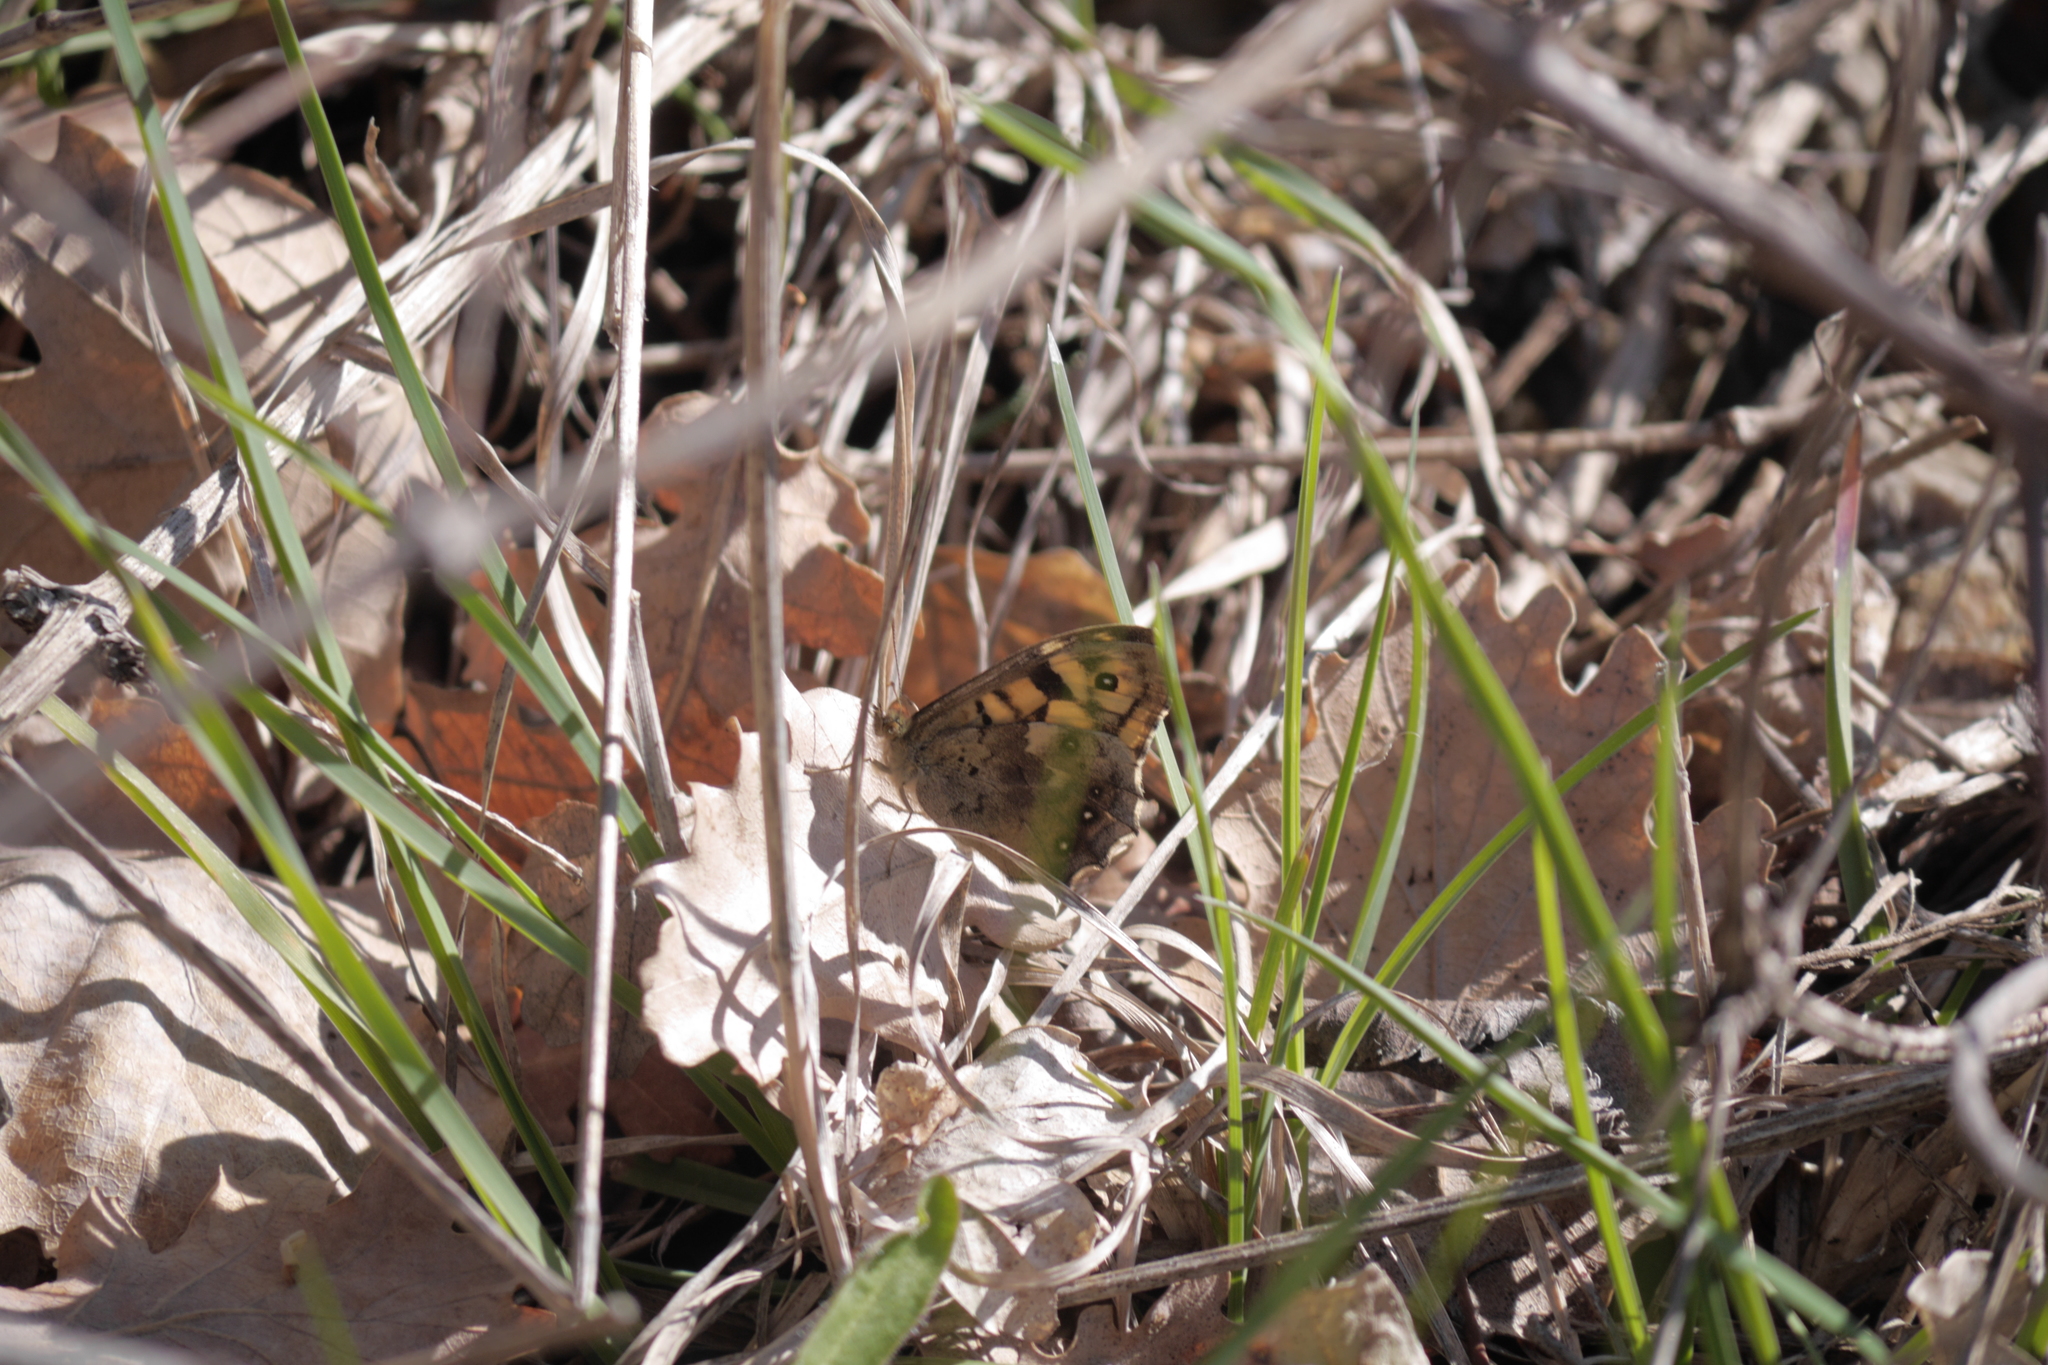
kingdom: Animalia
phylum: Arthropoda
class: Insecta
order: Lepidoptera
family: Nymphalidae
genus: Pararge
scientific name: Pararge aegeria
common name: Speckled wood
